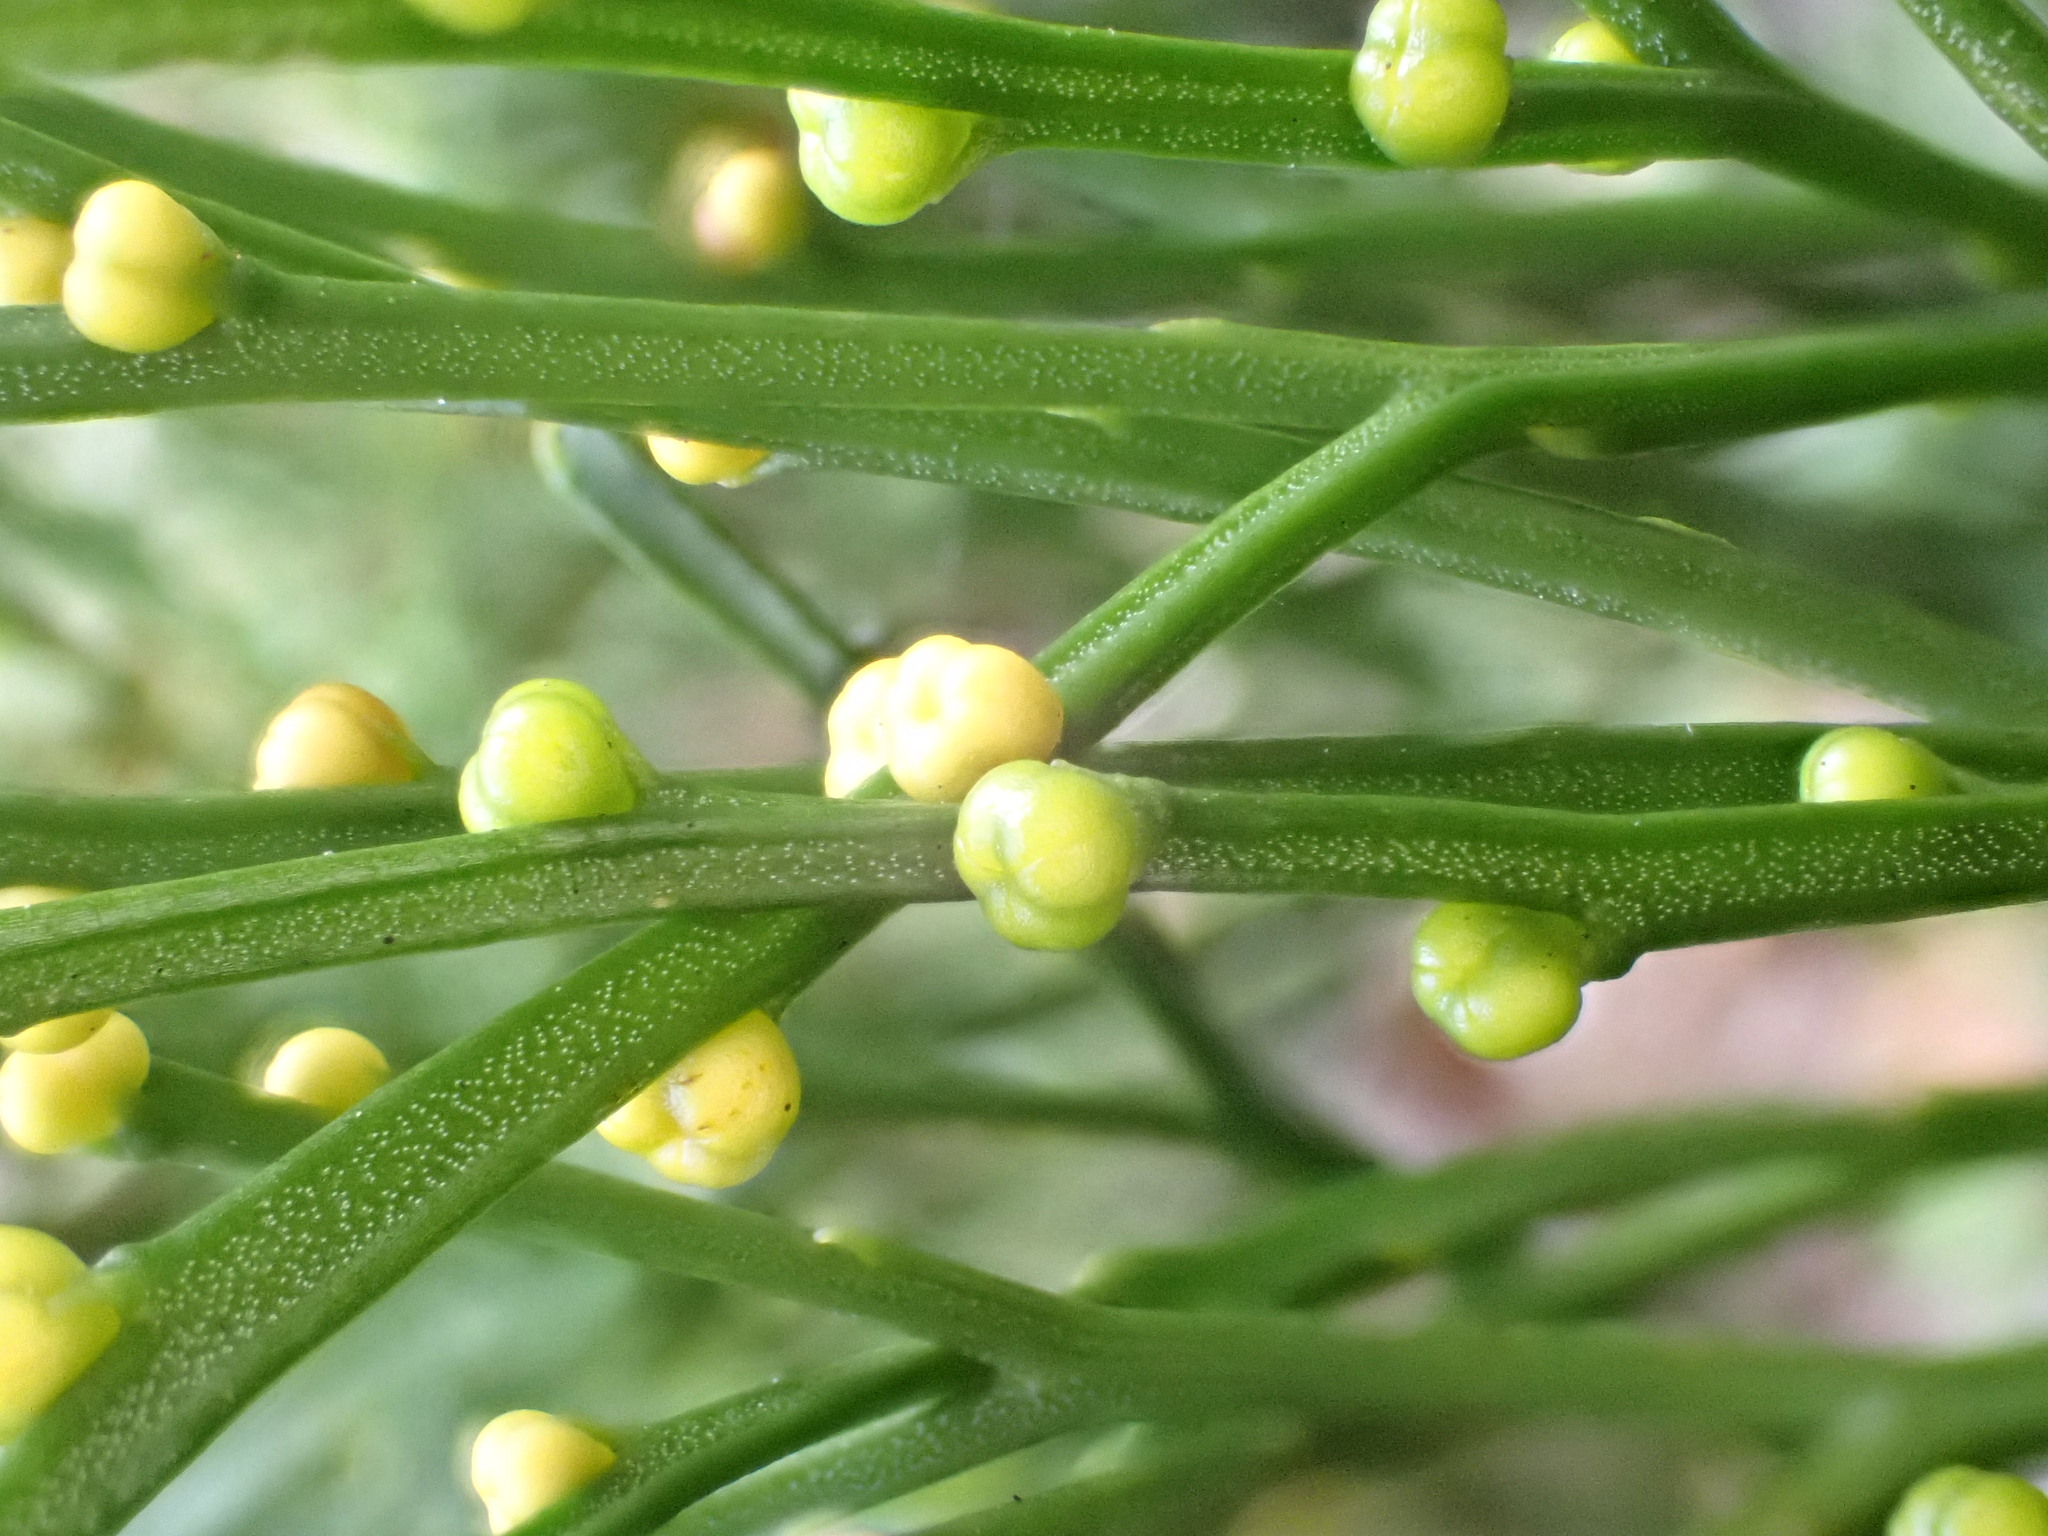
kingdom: Plantae
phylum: Tracheophyta
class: Polypodiopsida
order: Psilotales
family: Psilotaceae
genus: Psilotum
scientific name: Psilotum nudum
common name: Skeleton fork fern
